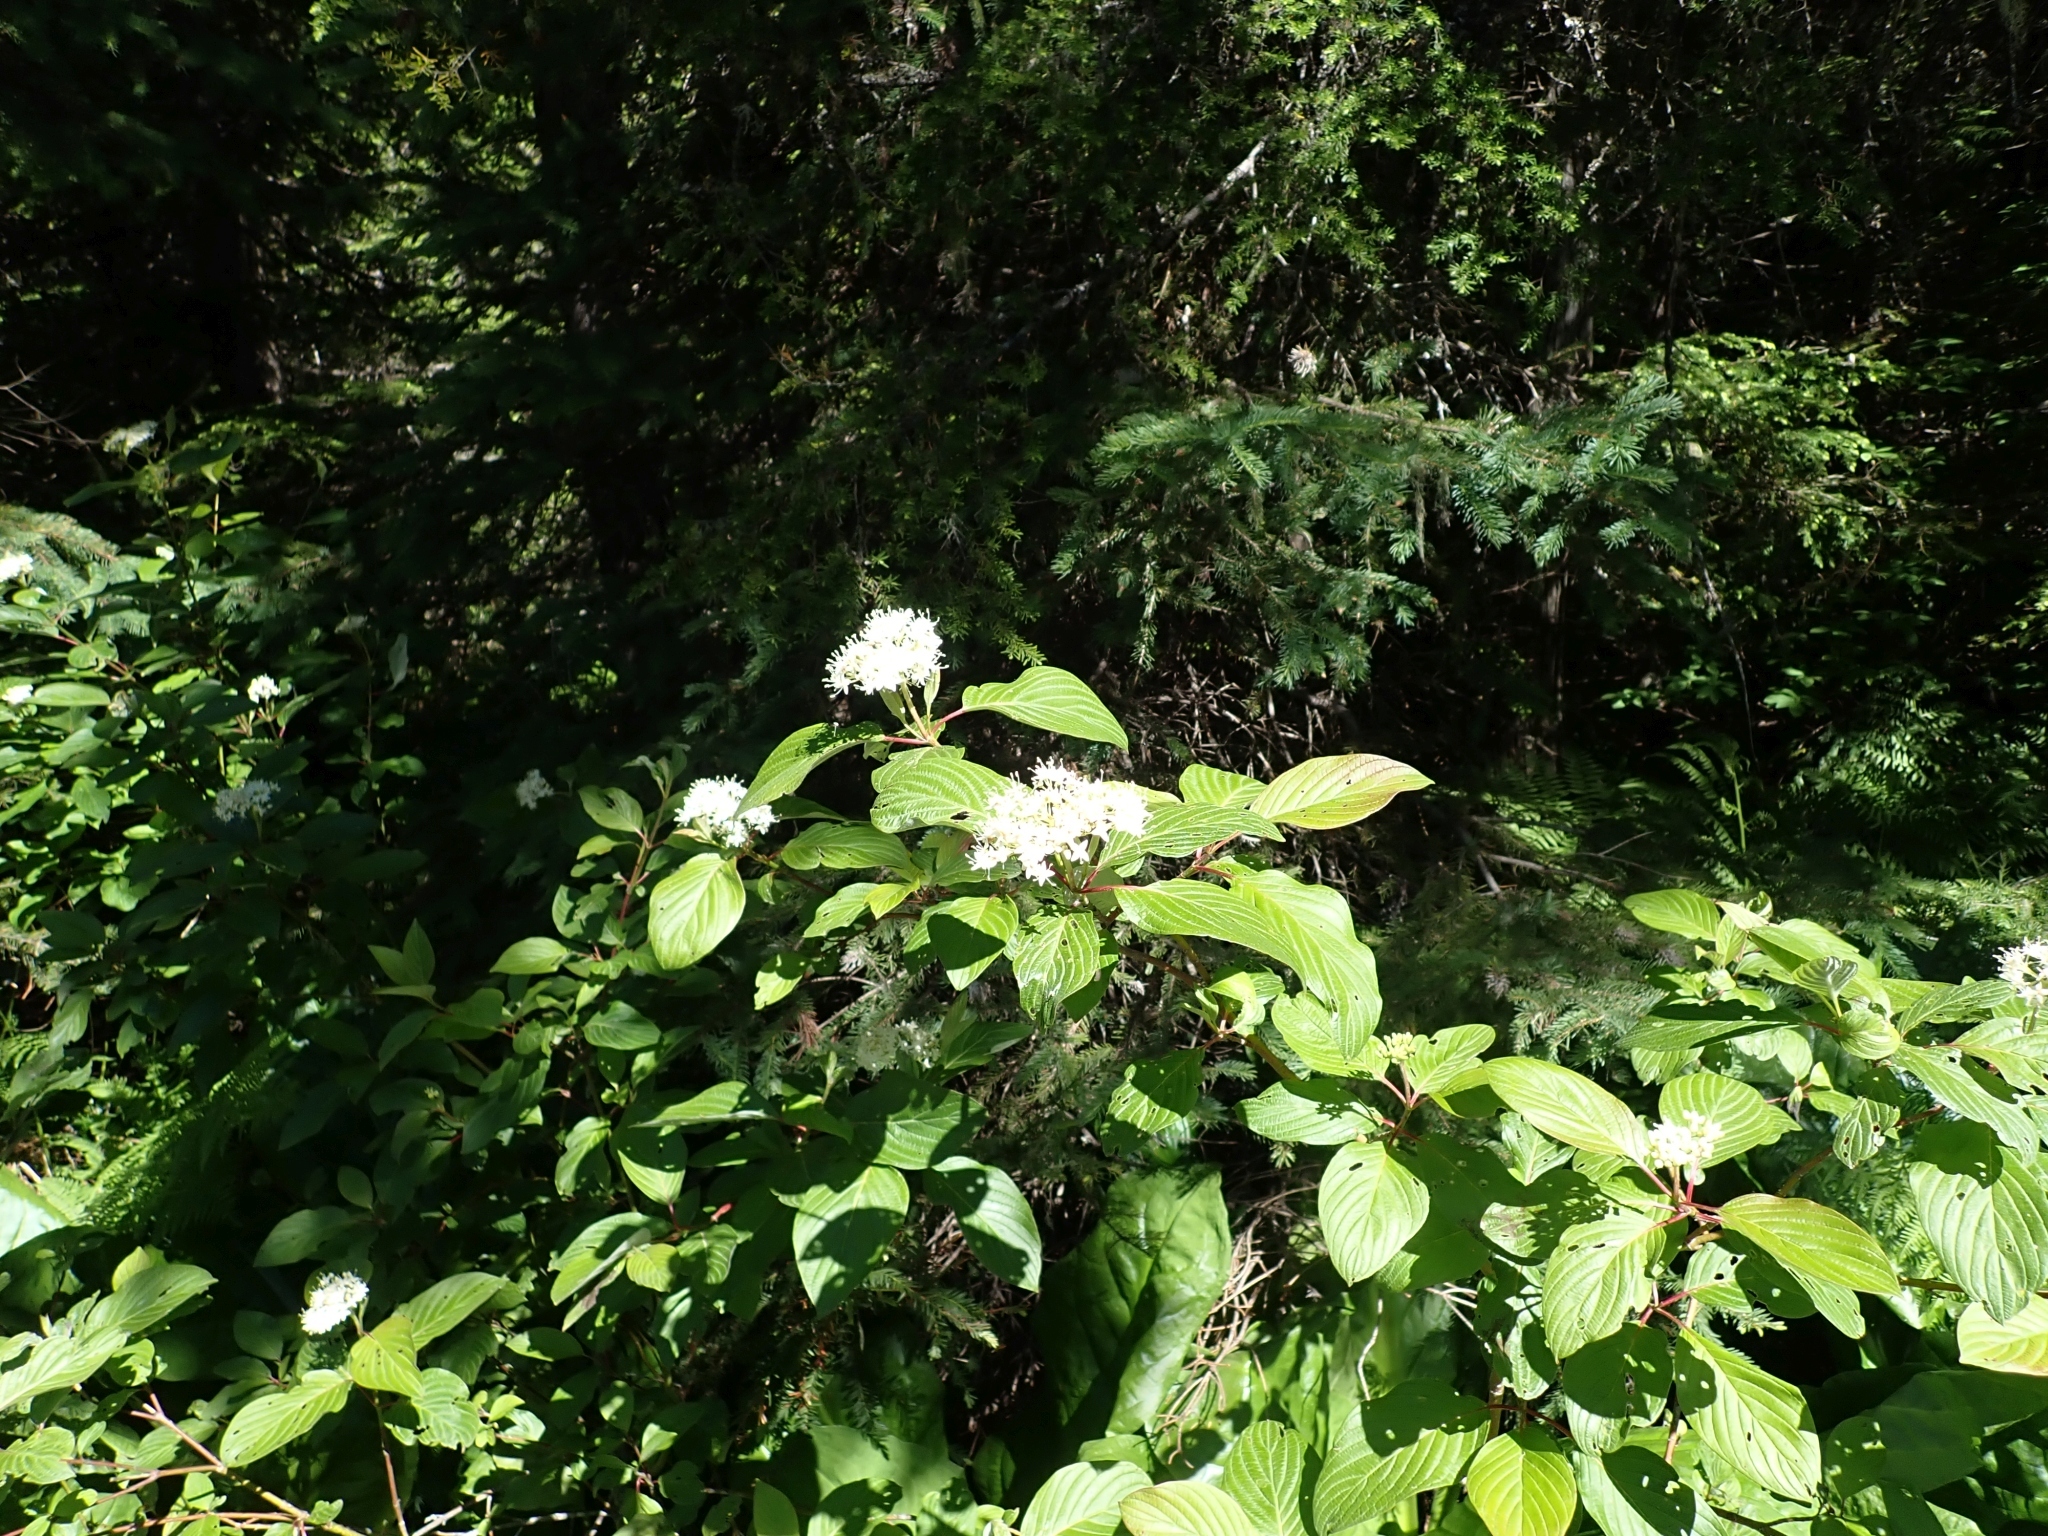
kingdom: Plantae
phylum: Tracheophyta
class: Magnoliopsida
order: Cornales
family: Cornaceae
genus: Cornus
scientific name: Cornus sericea
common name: Red-osier dogwood
